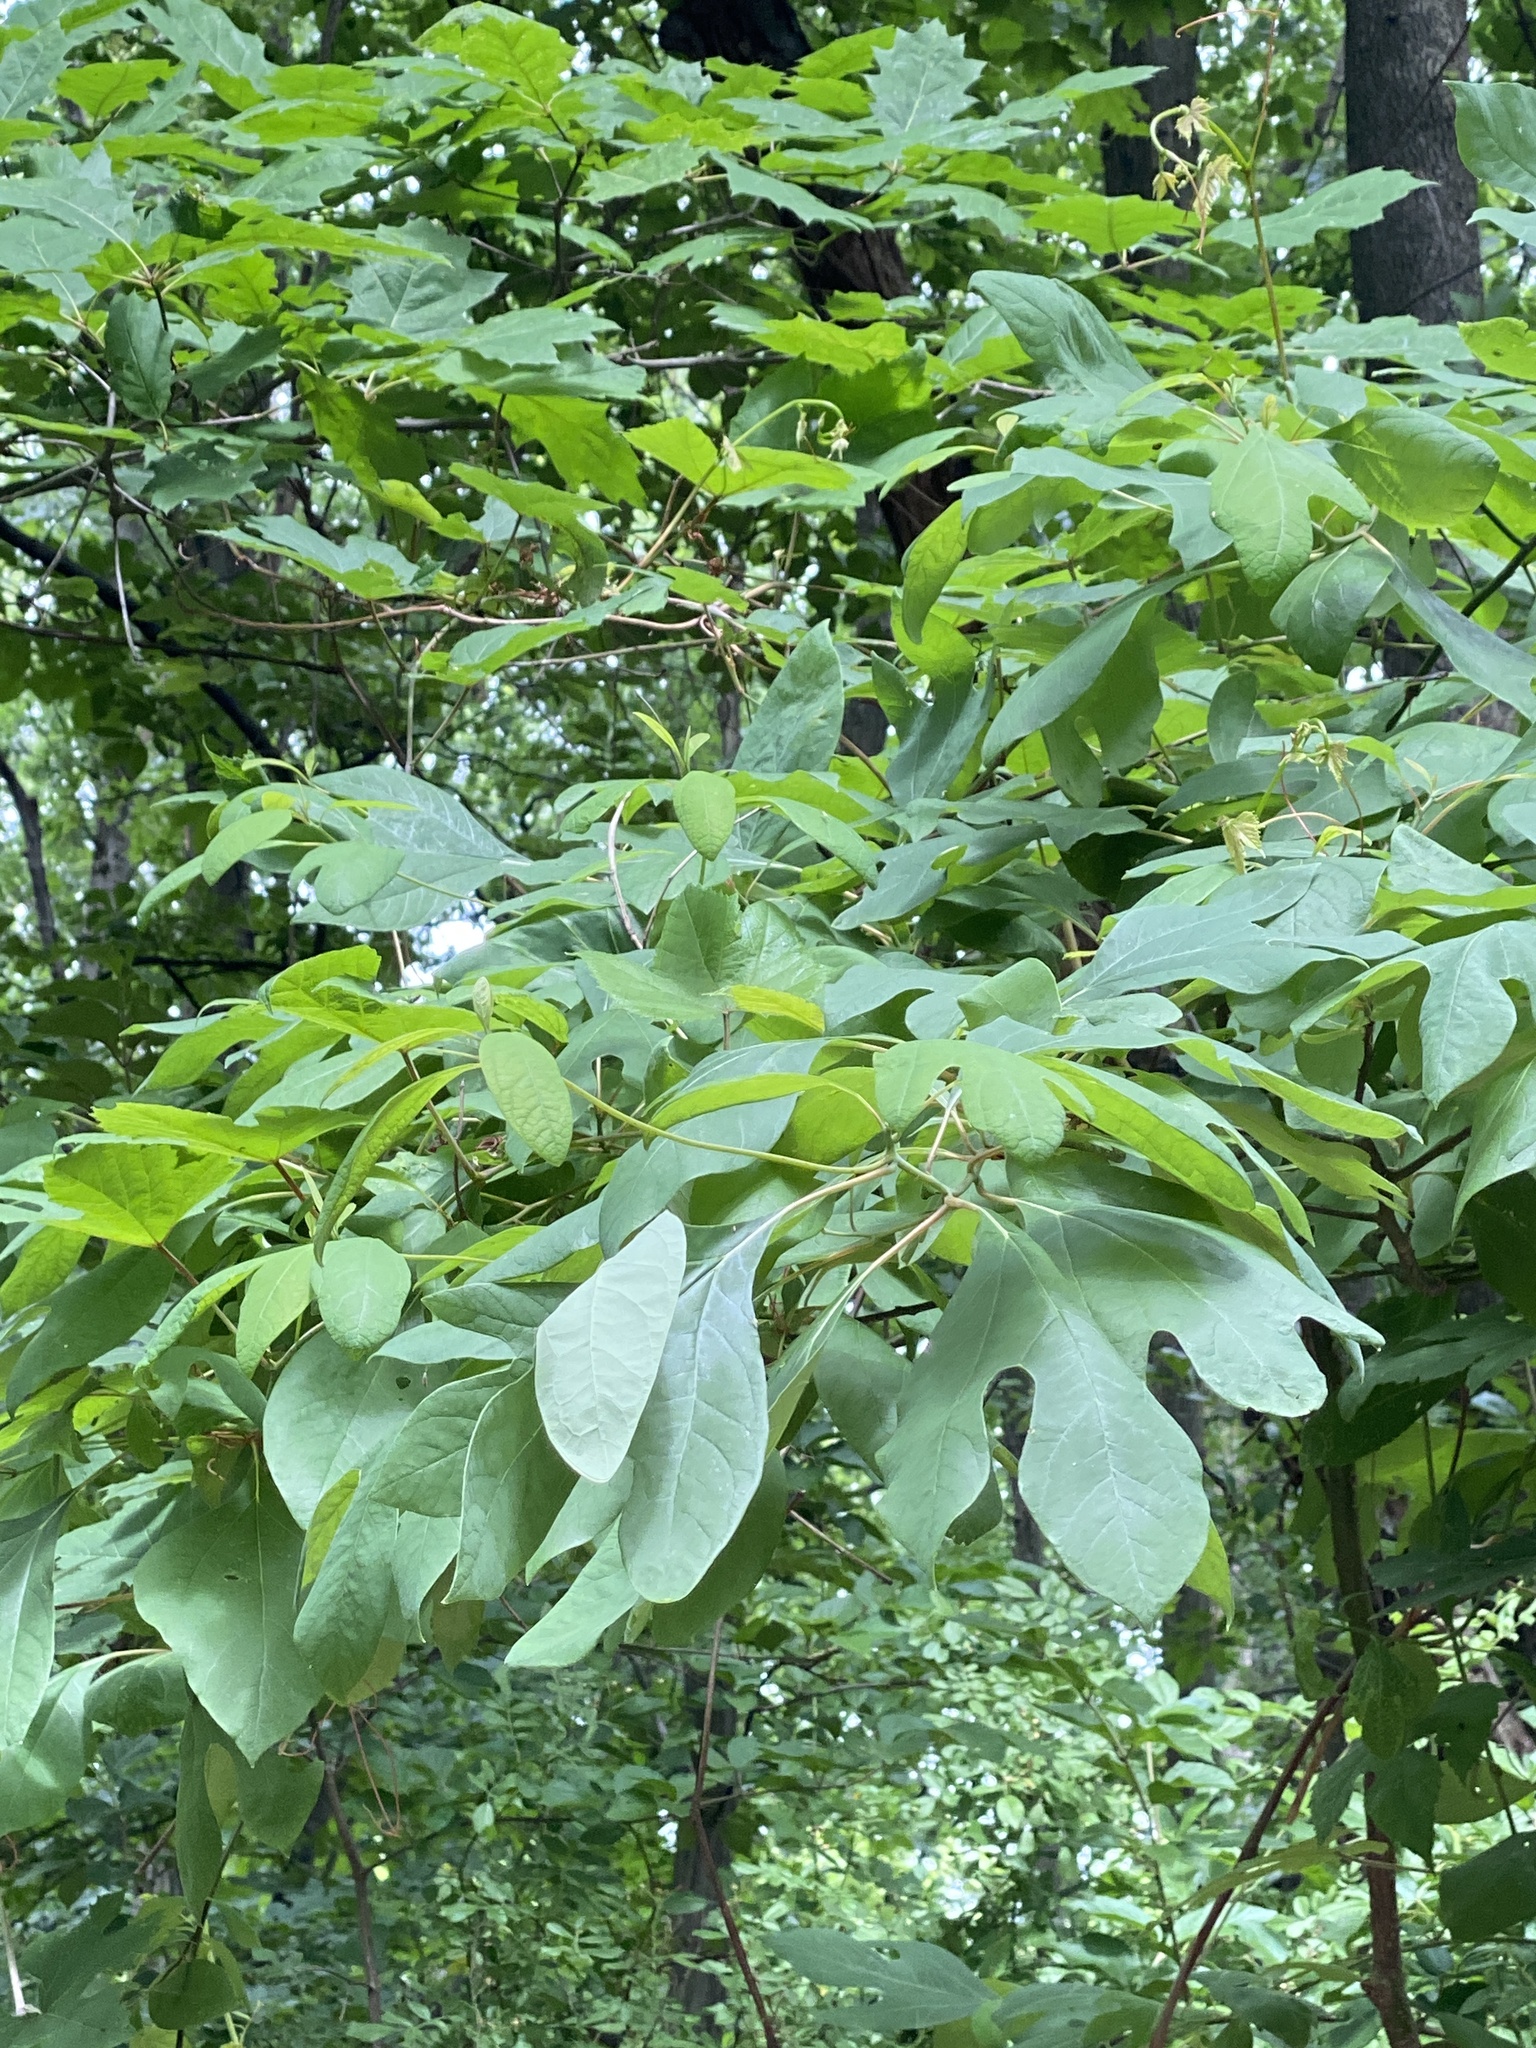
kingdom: Plantae
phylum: Tracheophyta
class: Magnoliopsida
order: Laurales
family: Lauraceae
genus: Sassafras
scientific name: Sassafras albidum
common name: Sassafras
